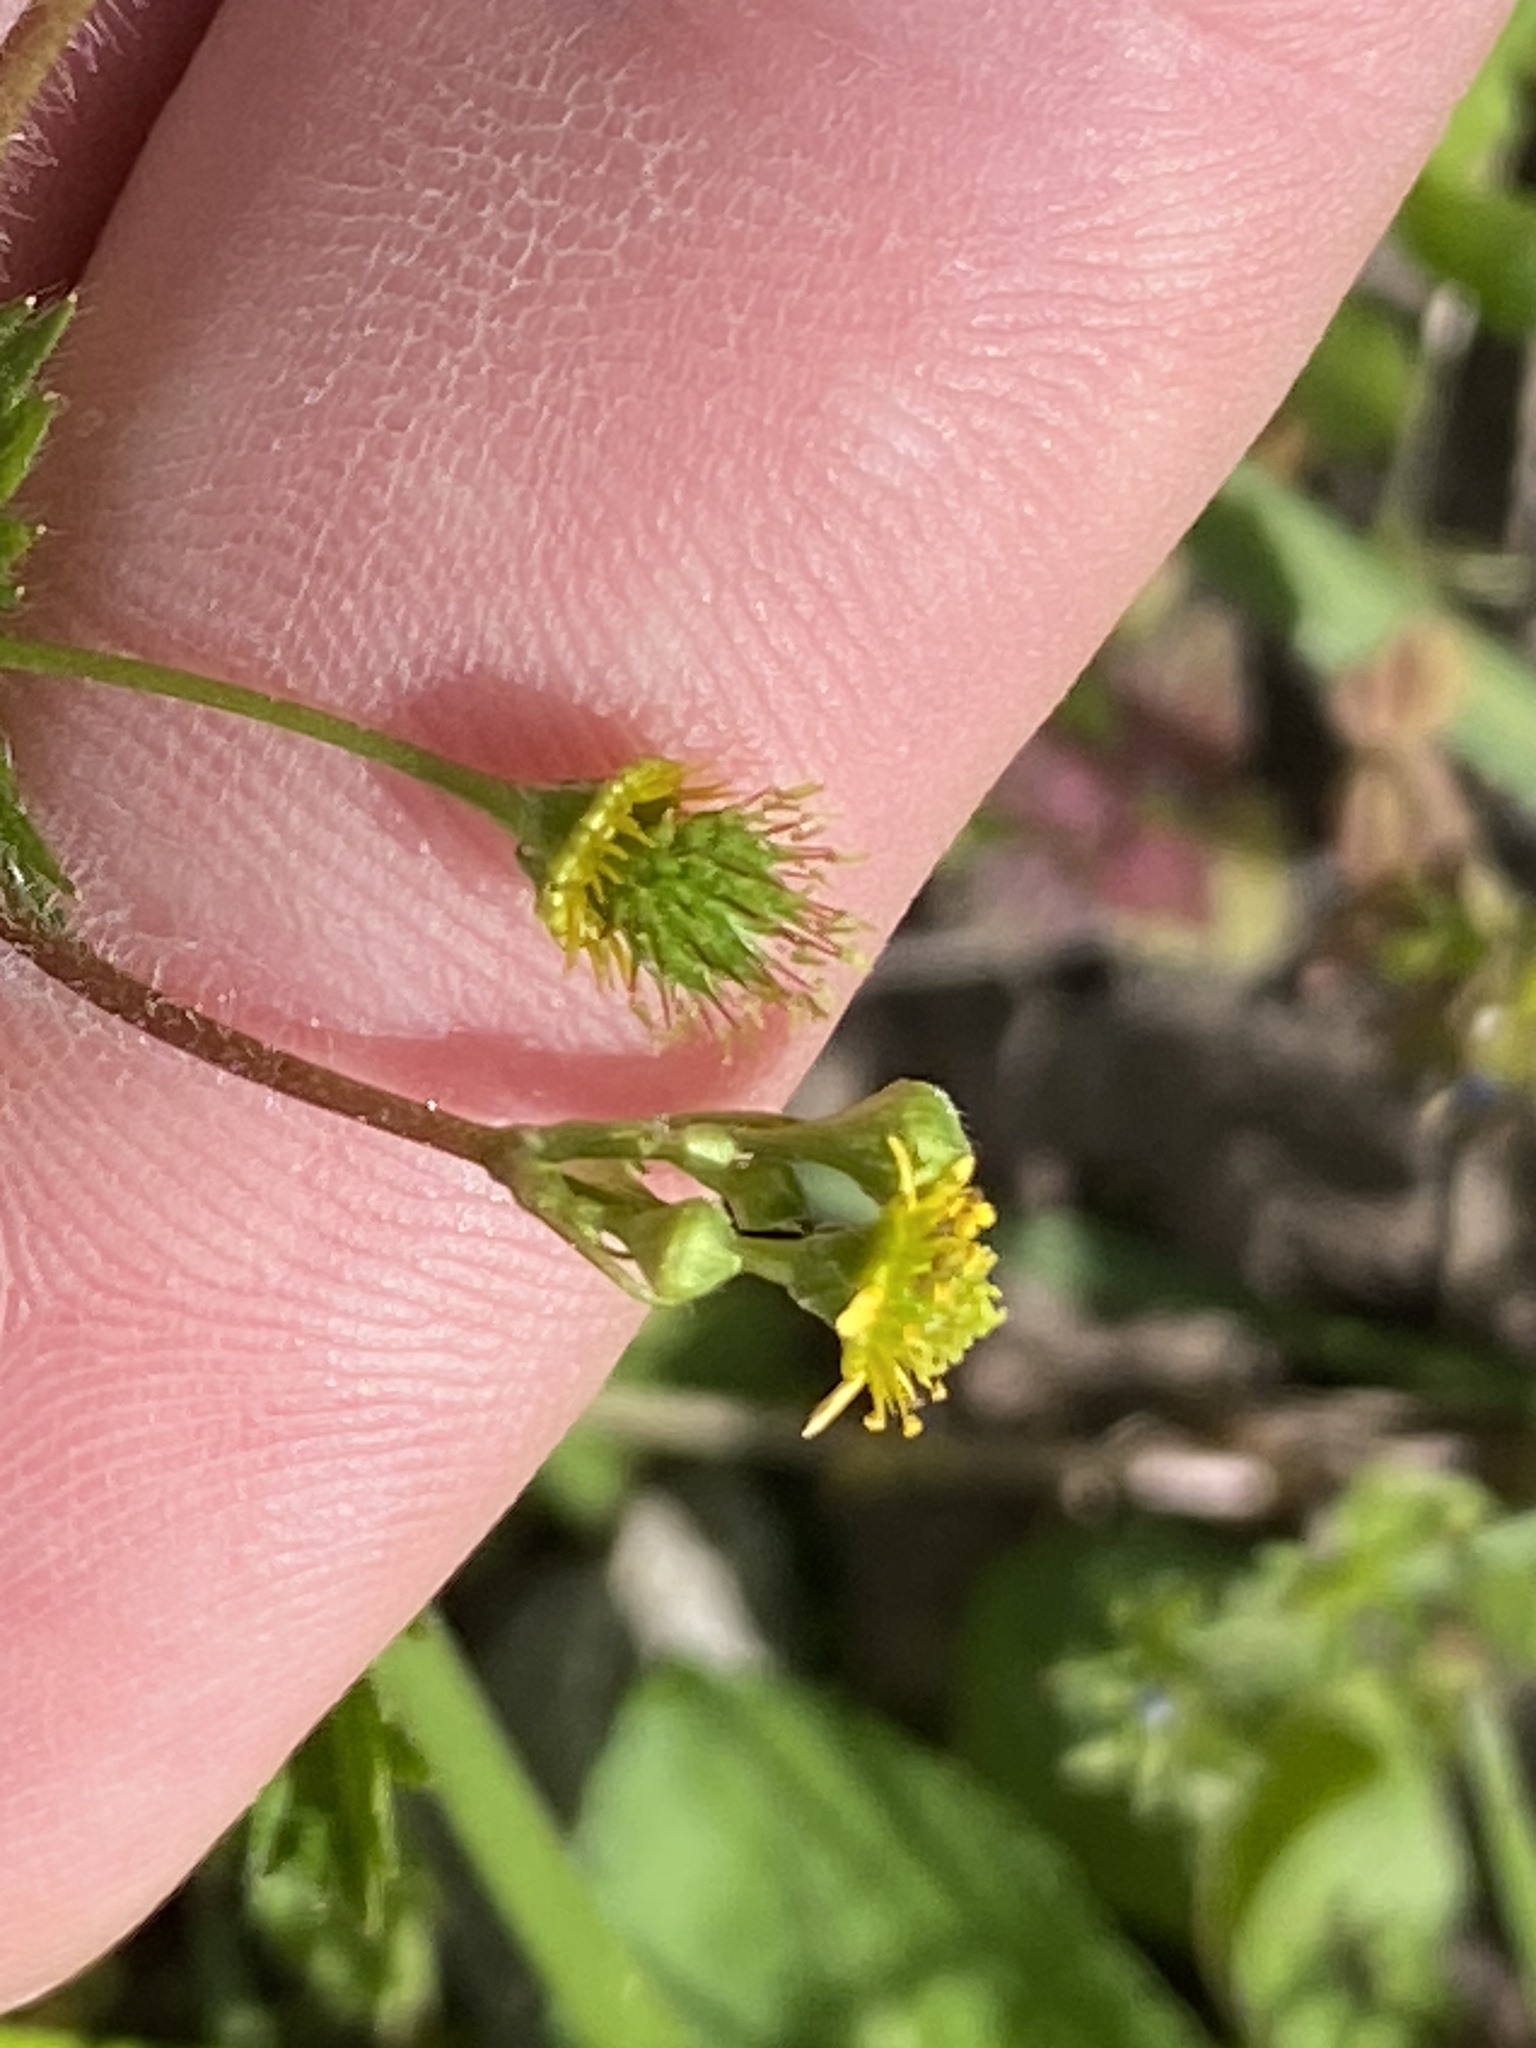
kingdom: Plantae
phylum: Tracheophyta
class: Magnoliopsida
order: Rosales
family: Rosaceae
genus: Geum
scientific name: Geum vernum
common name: Spring avens
